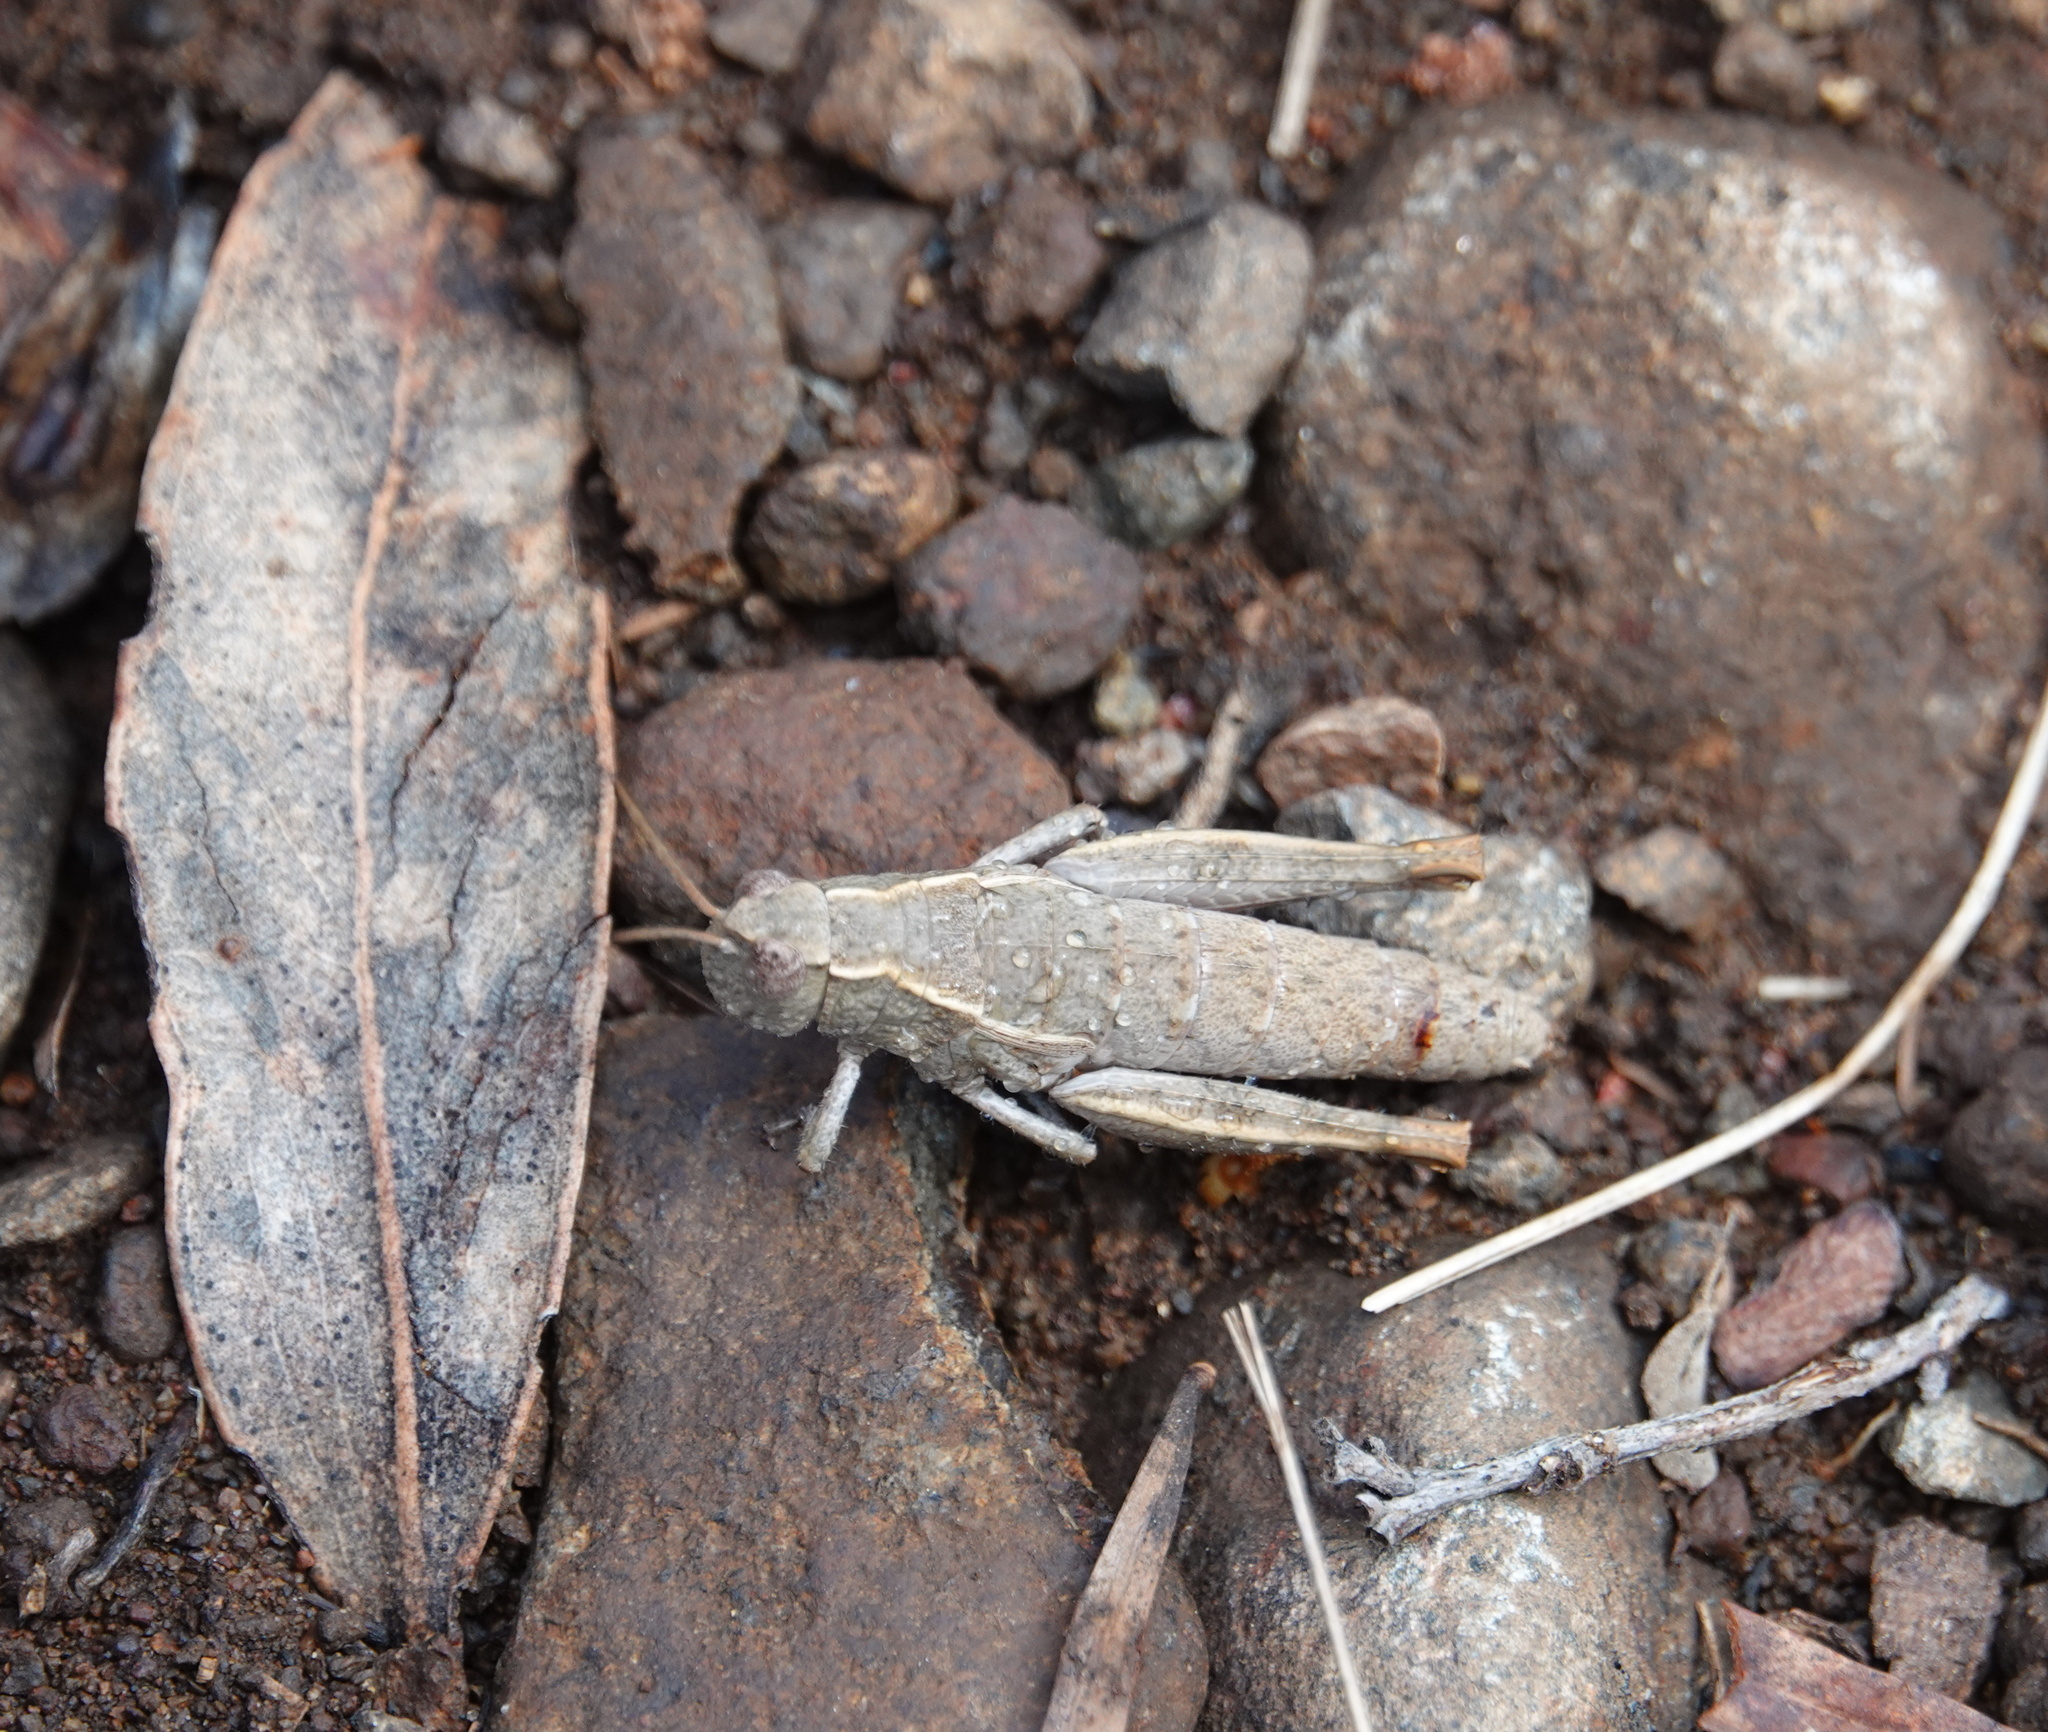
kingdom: Animalia
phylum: Arthropoda
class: Insecta
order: Orthoptera
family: Acrididae
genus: Tasmaniacris
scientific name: Tasmaniacris tasmaniensis
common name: Tasmanian grasshopper
